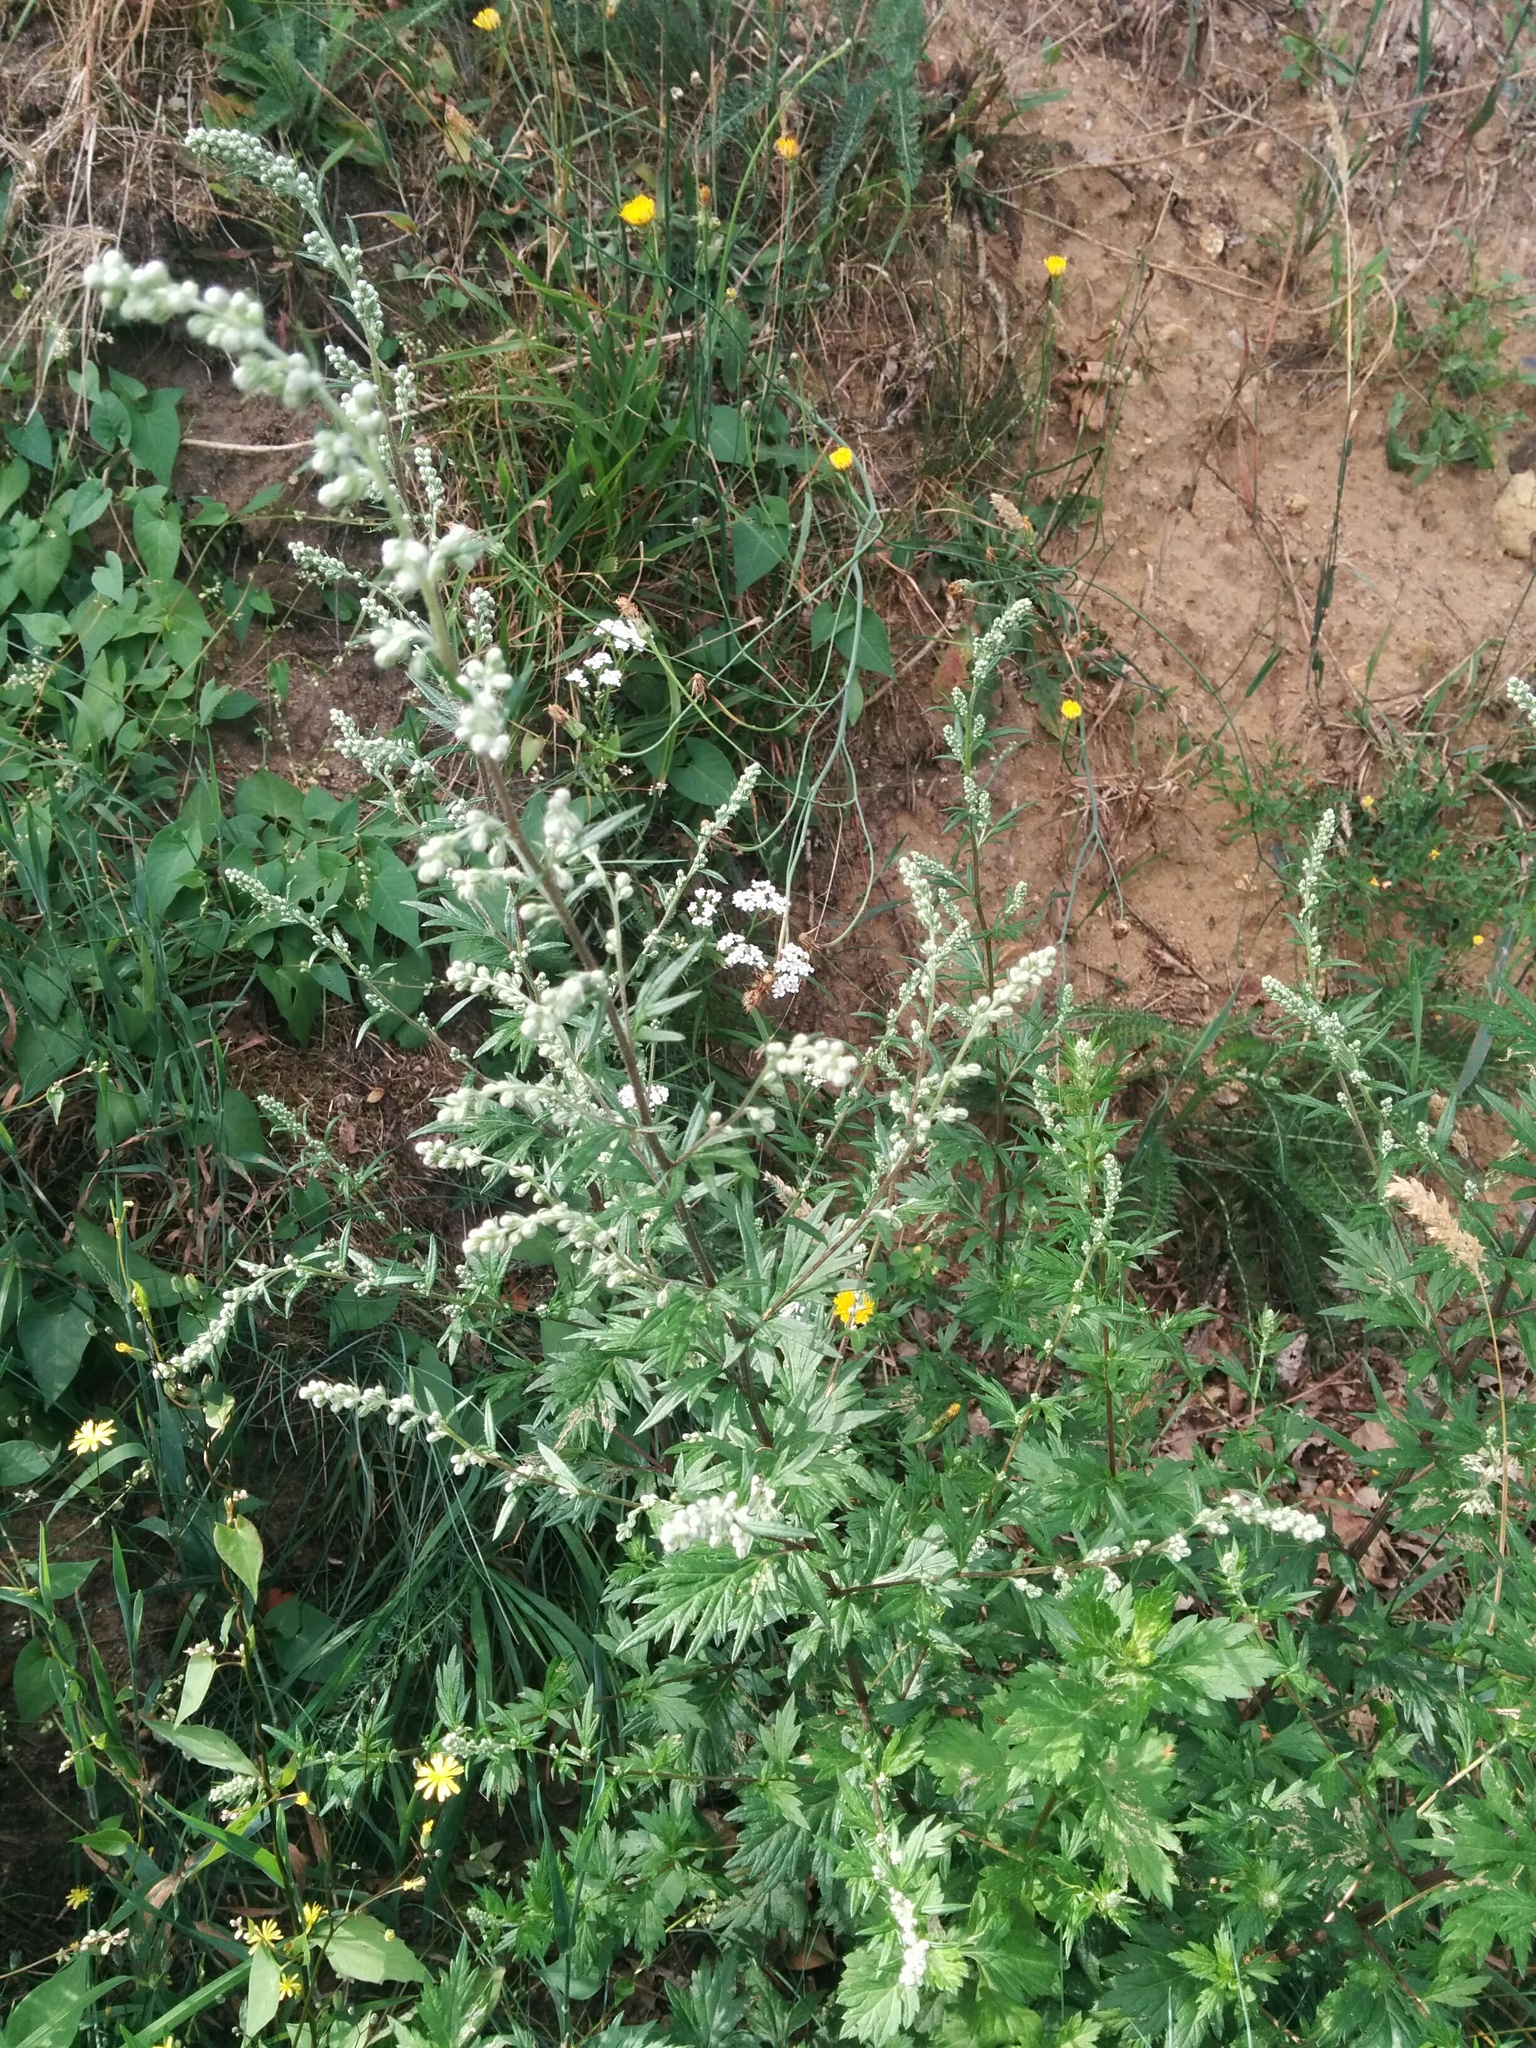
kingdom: Plantae
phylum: Tracheophyta
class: Magnoliopsida
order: Asterales
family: Asteraceae
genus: Artemisia
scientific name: Artemisia vulgaris
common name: Mugwort
